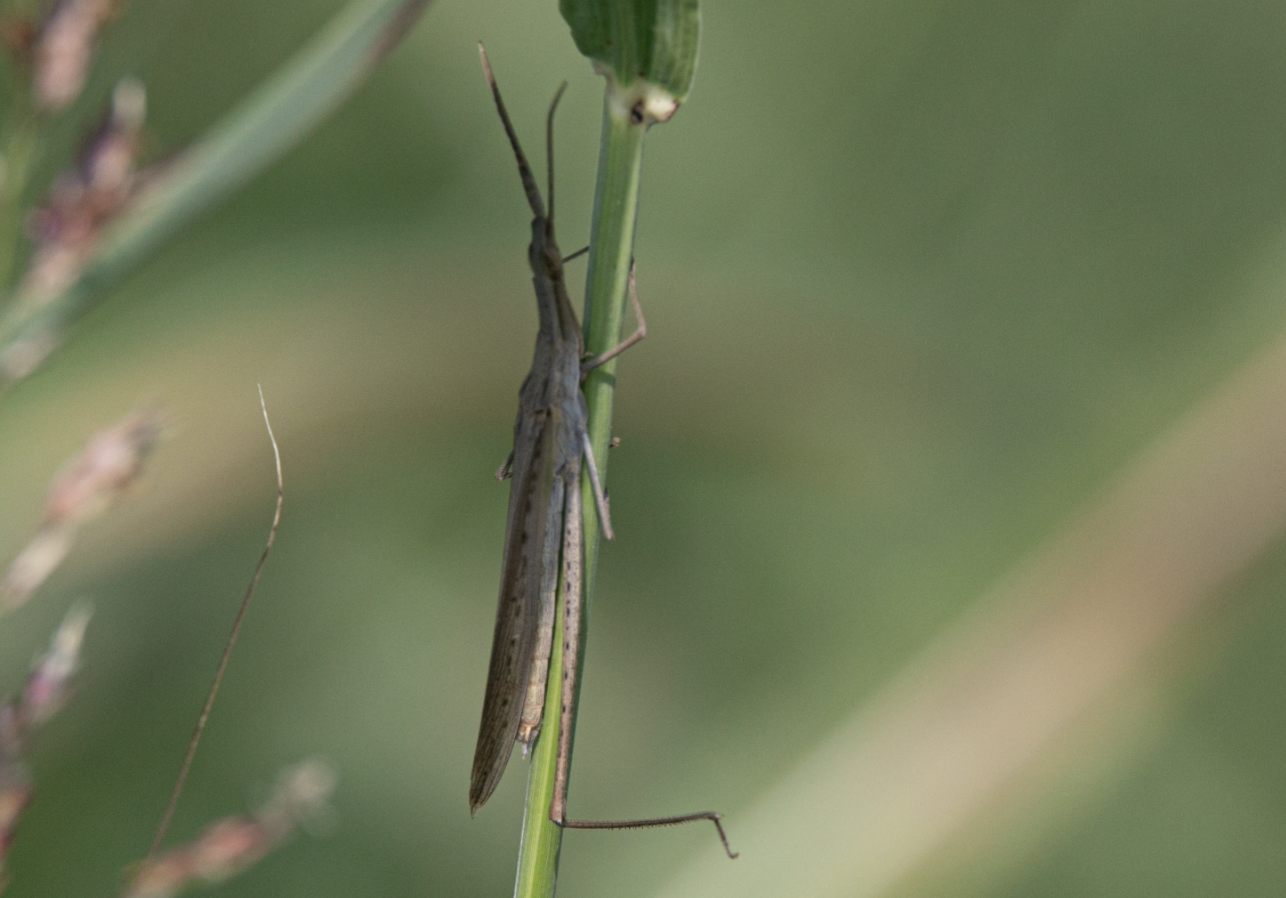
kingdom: Animalia
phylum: Arthropoda
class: Insecta
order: Orthoptera
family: Acrididae
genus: Acrida
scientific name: Acrida ungarica
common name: Common cone-headed grasshopper
